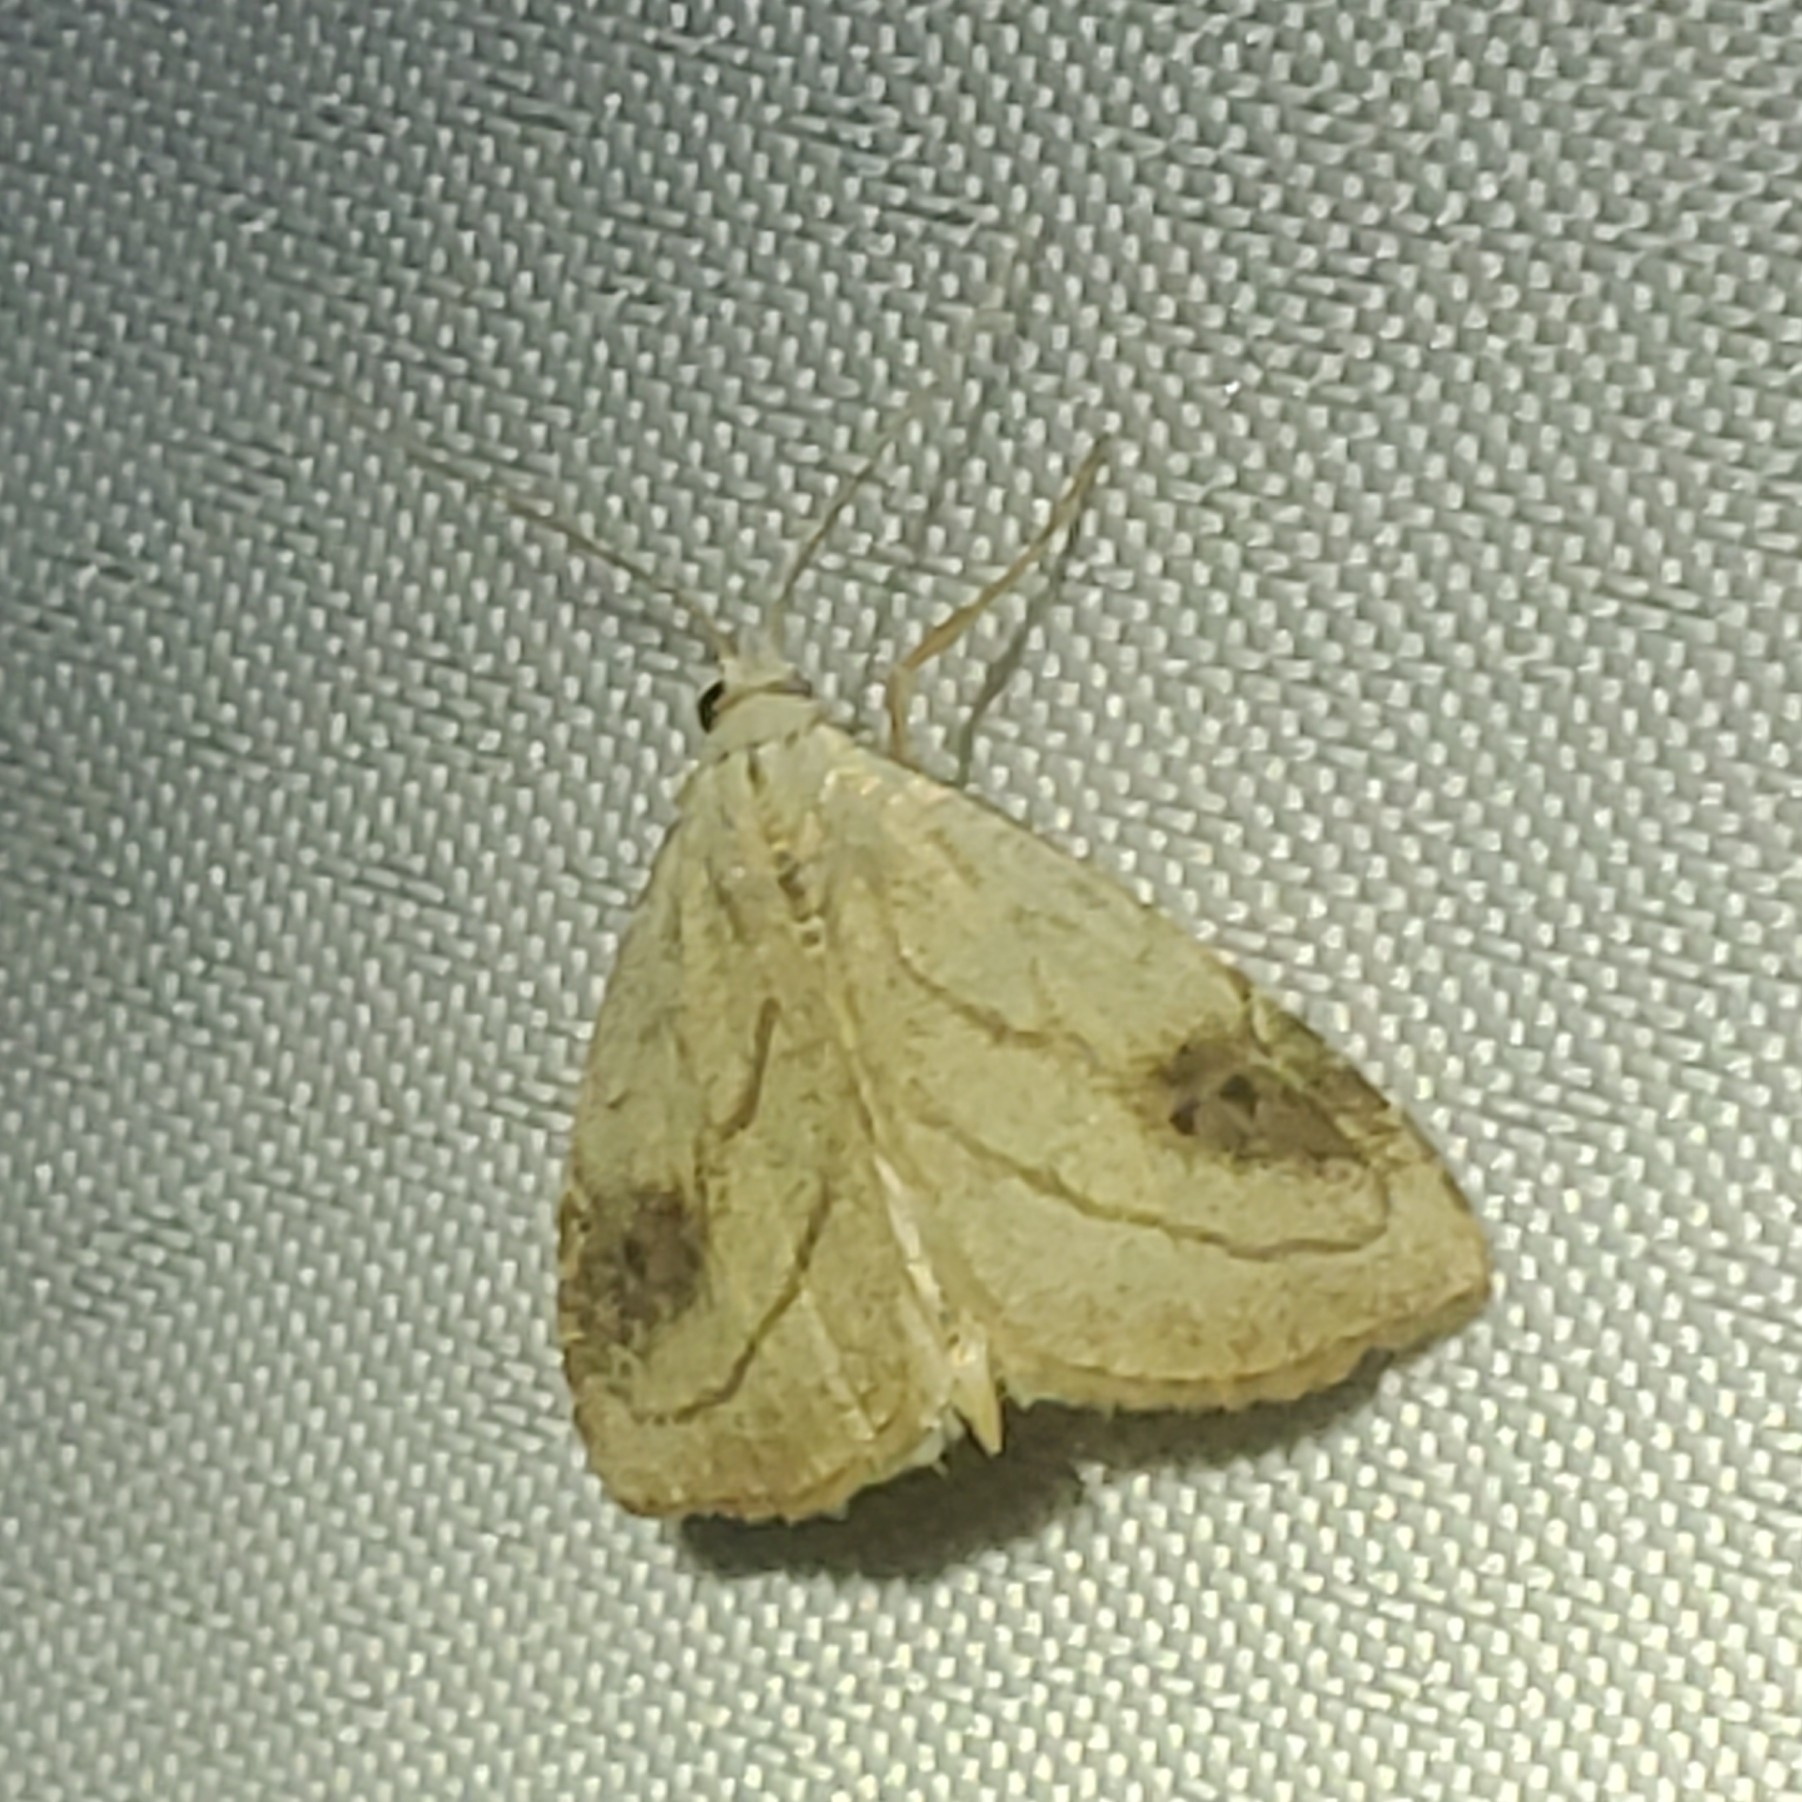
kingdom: Animalia
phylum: Arthropoda
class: Insecta
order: Lepidoptera
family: Erebidae
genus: Rivula
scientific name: Rivula propinqualis
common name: Spotted grass moth
